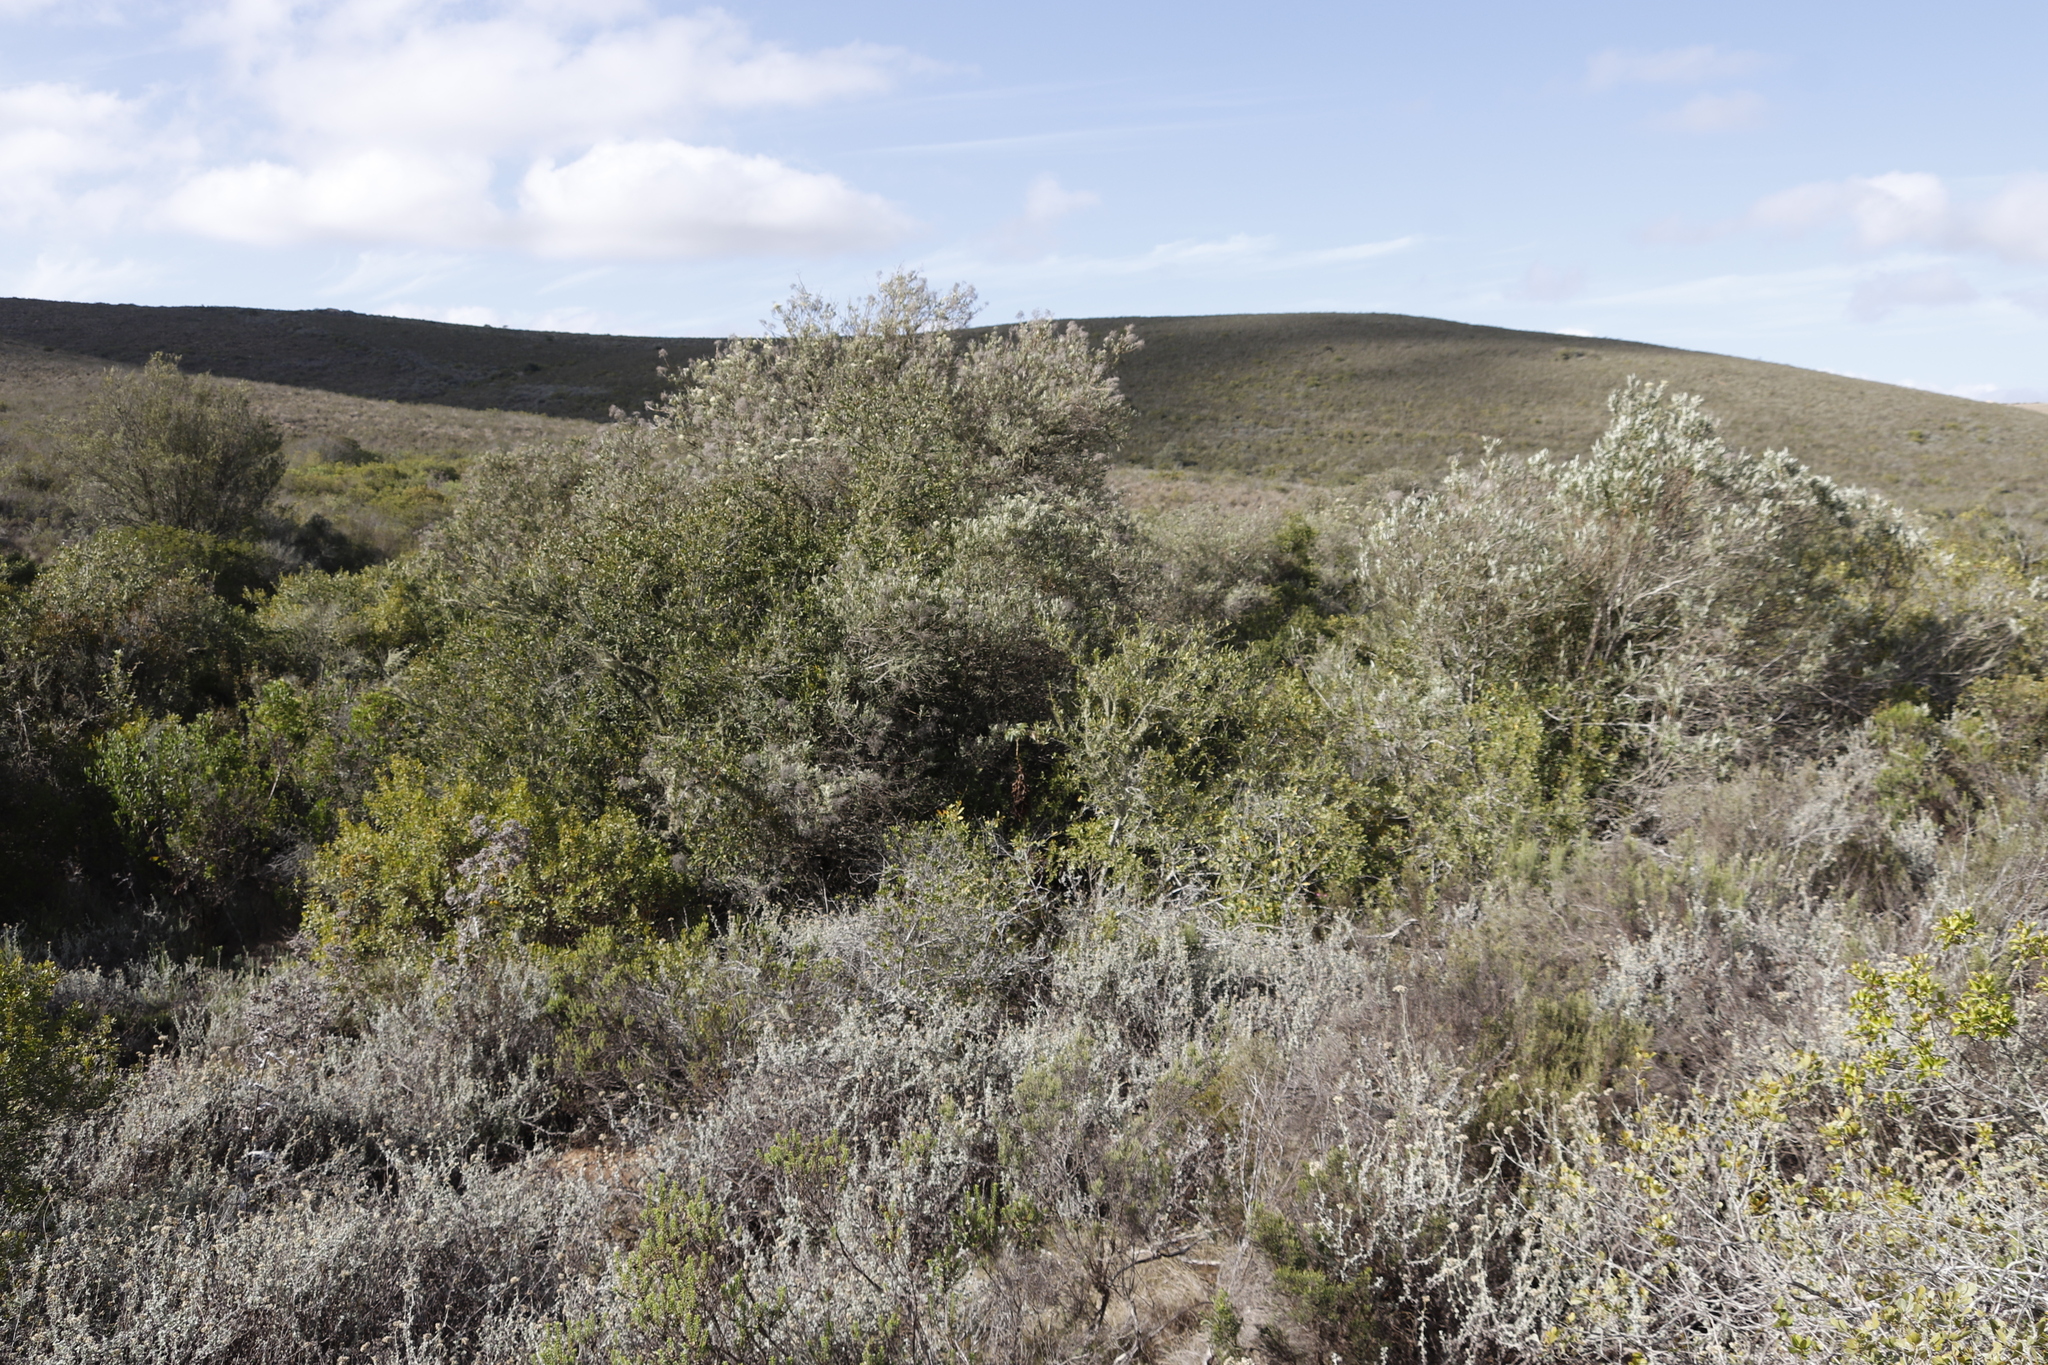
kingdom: Plantae
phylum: Tracheophyta
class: Magnoliopsida
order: Lamiales
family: Scrophulariaceae
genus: Buddleja
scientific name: Buddleja saligna
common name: False olive
